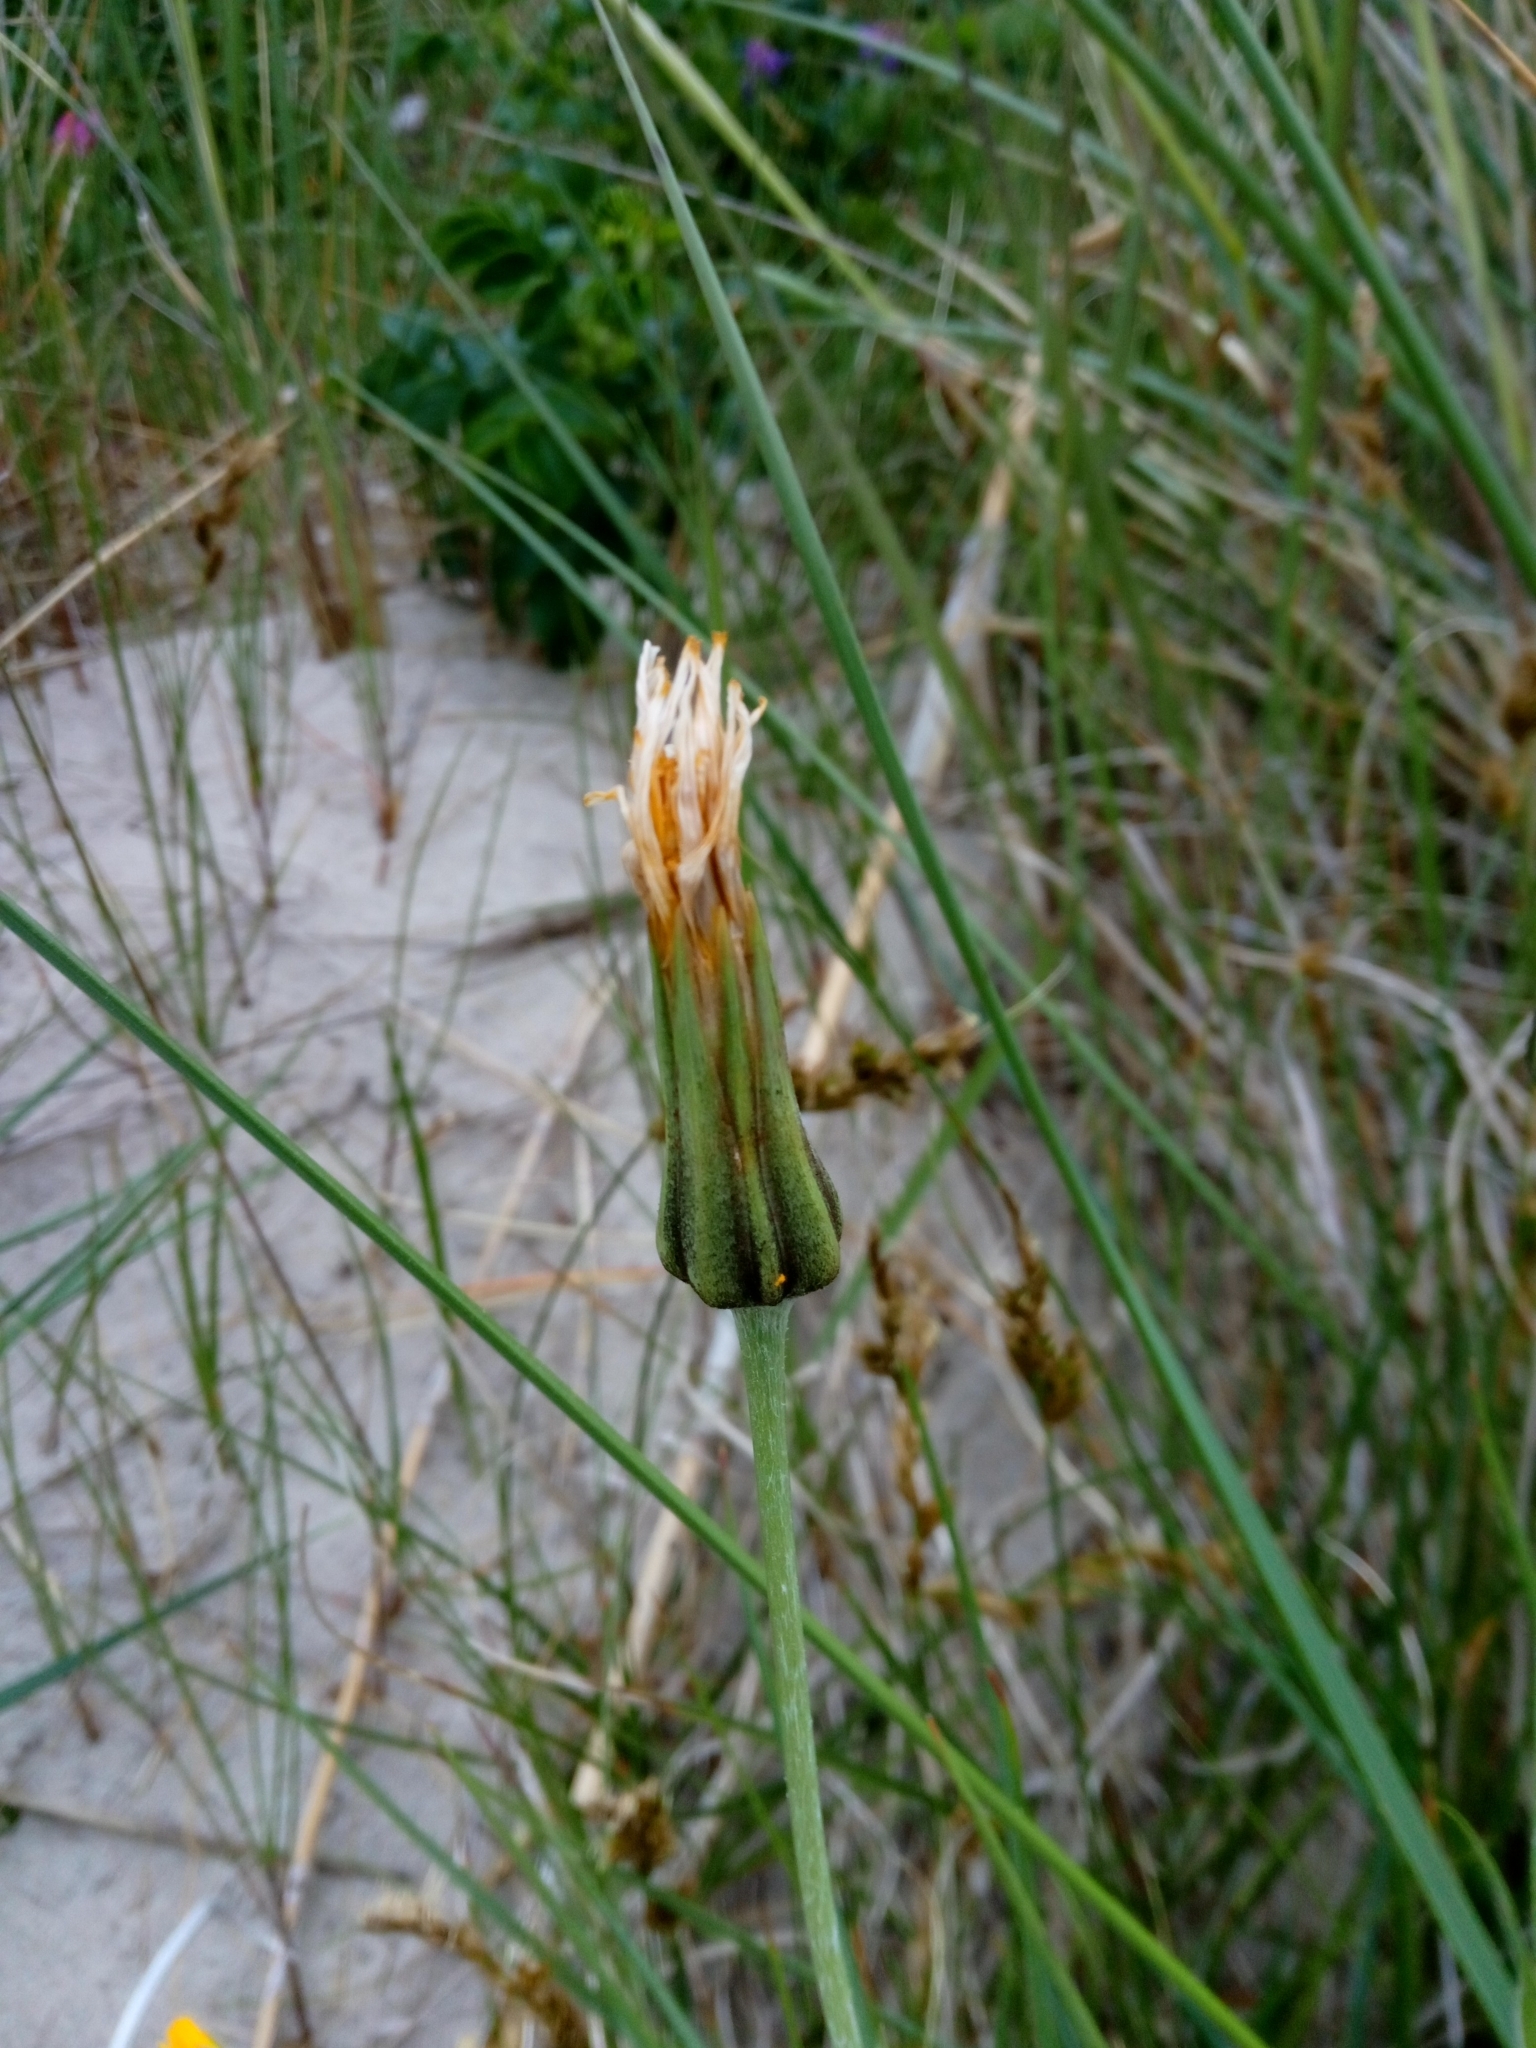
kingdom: Plantae
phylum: Tracheophyta
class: Magnoliopsida
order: Asterales
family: Asteraceae
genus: Tragopogon
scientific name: Tragopogon heterospermus
